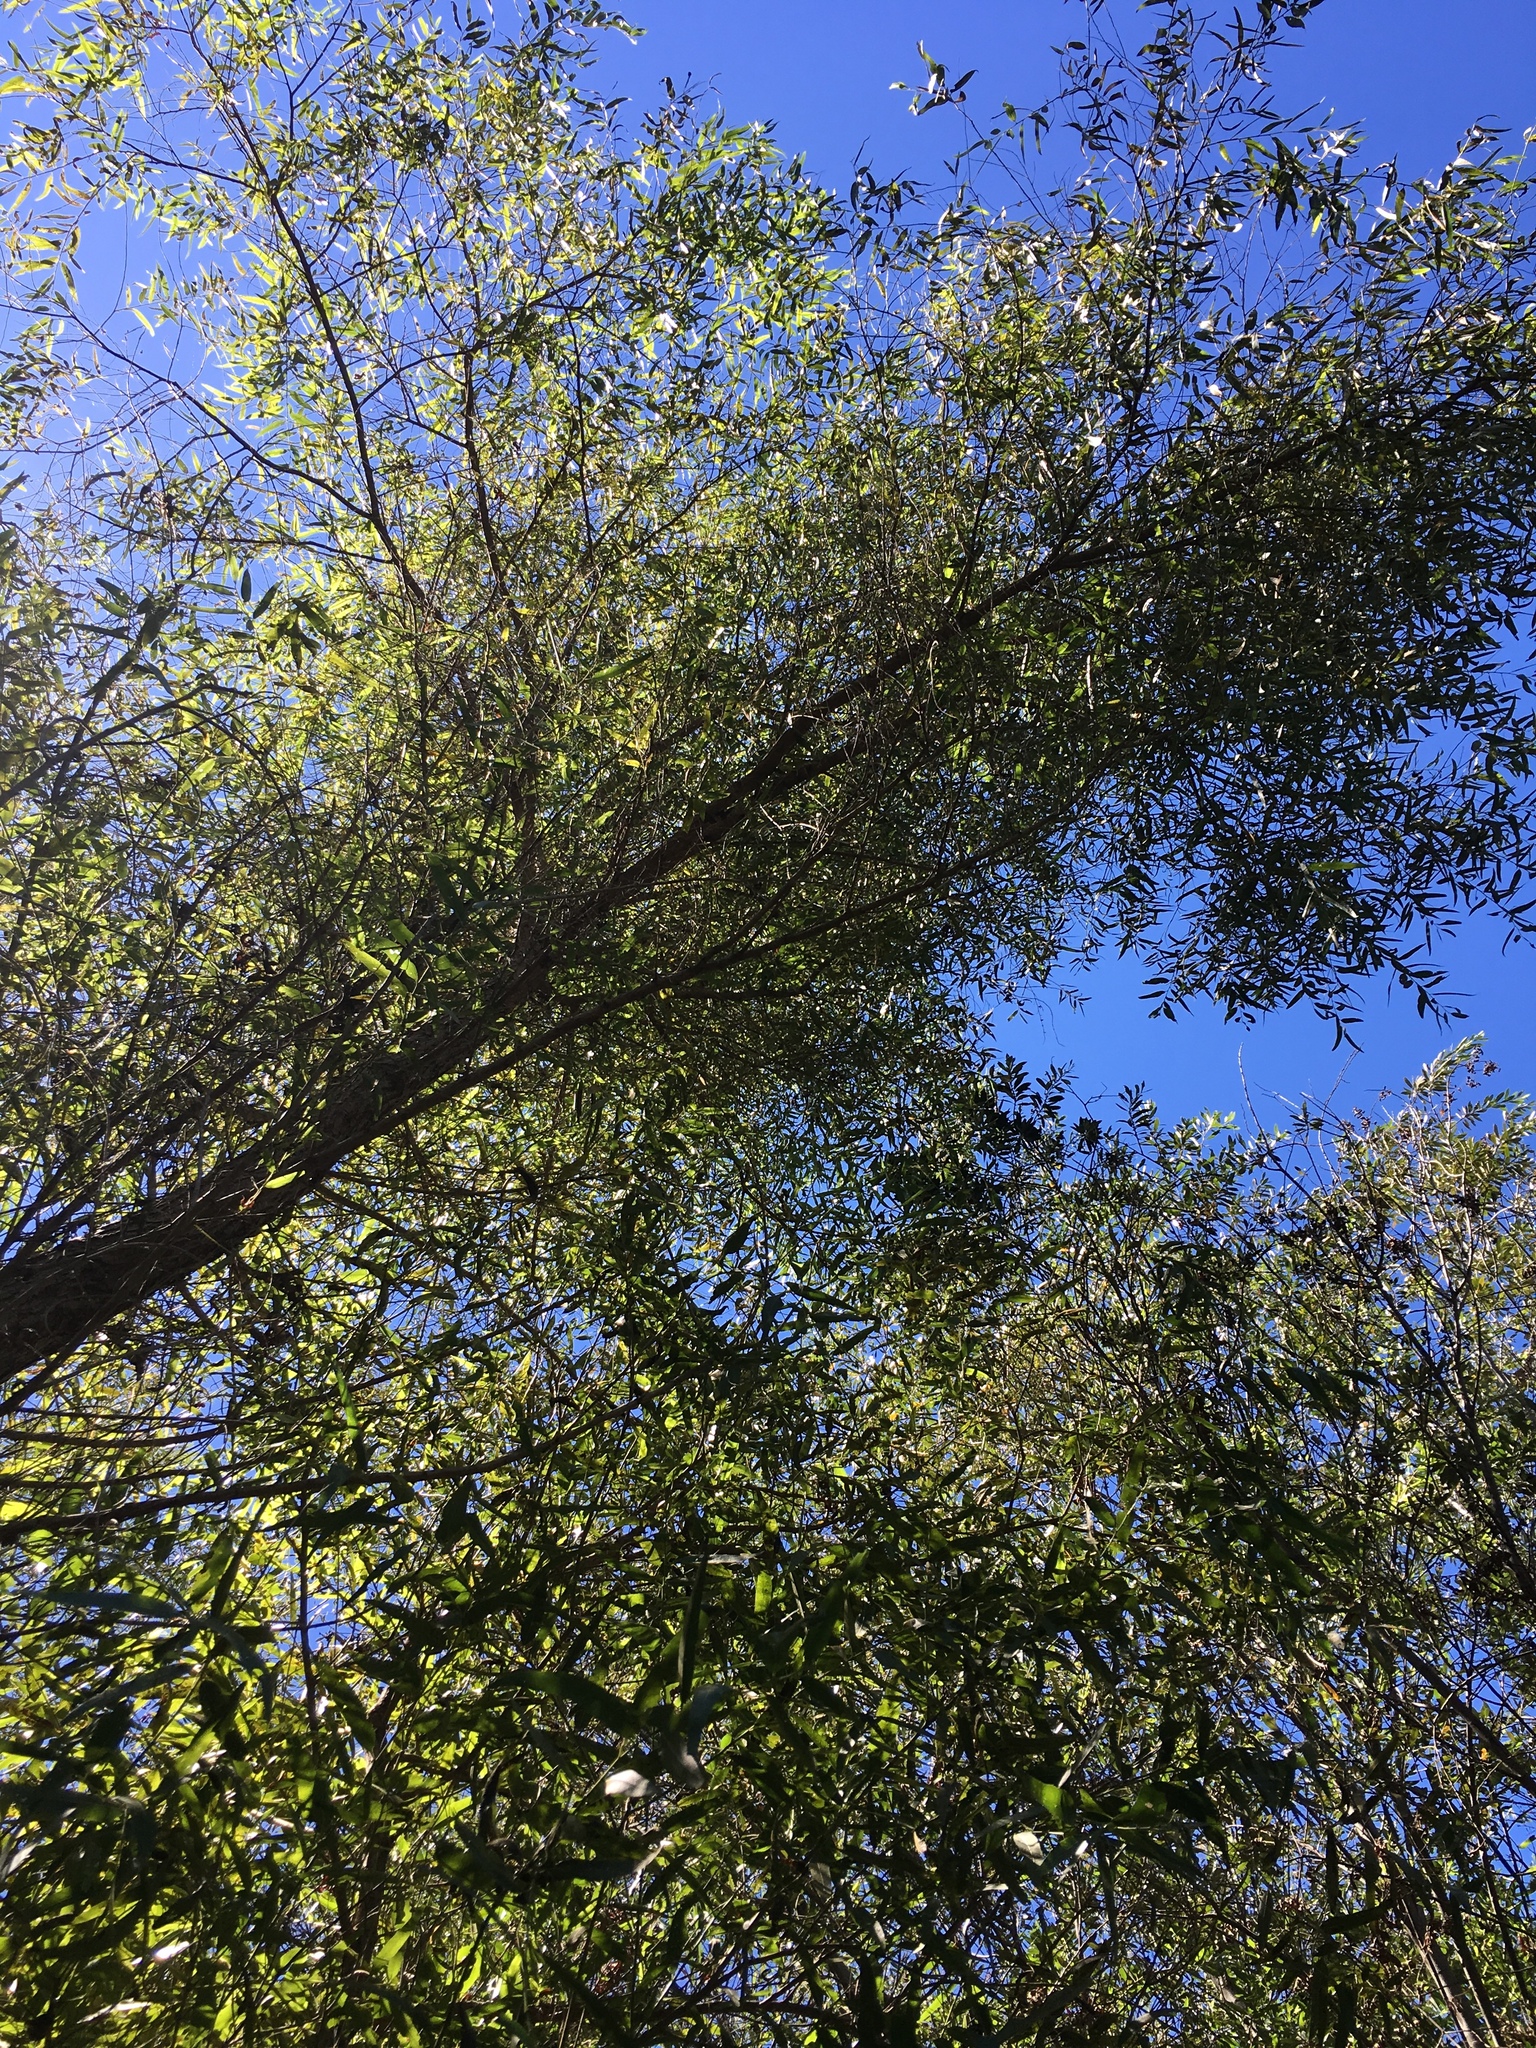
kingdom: Plantae
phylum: Tracheophyta
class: Magnoliopsida
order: Malpighiales
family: Salicaceae
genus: Salix
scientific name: Salix gooddingii
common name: Goodding's willow
